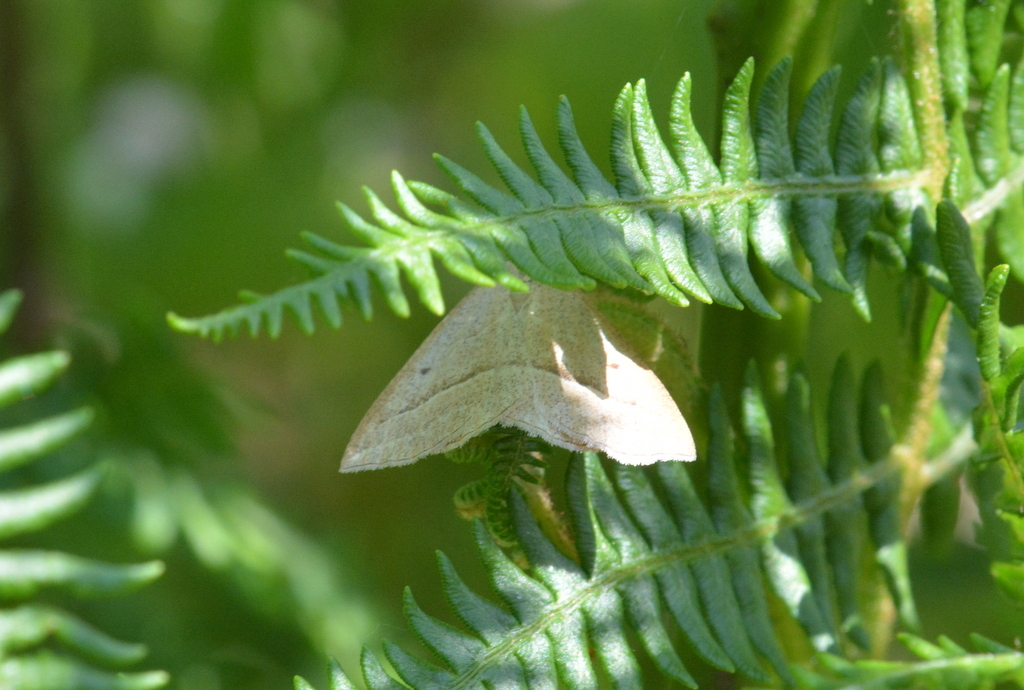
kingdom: Animalia
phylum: Arthropoda
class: Insecta
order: Lepidoptera
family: Pterophoridae
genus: Pterophorus
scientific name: Pterophorus Petrophora chlorosata
